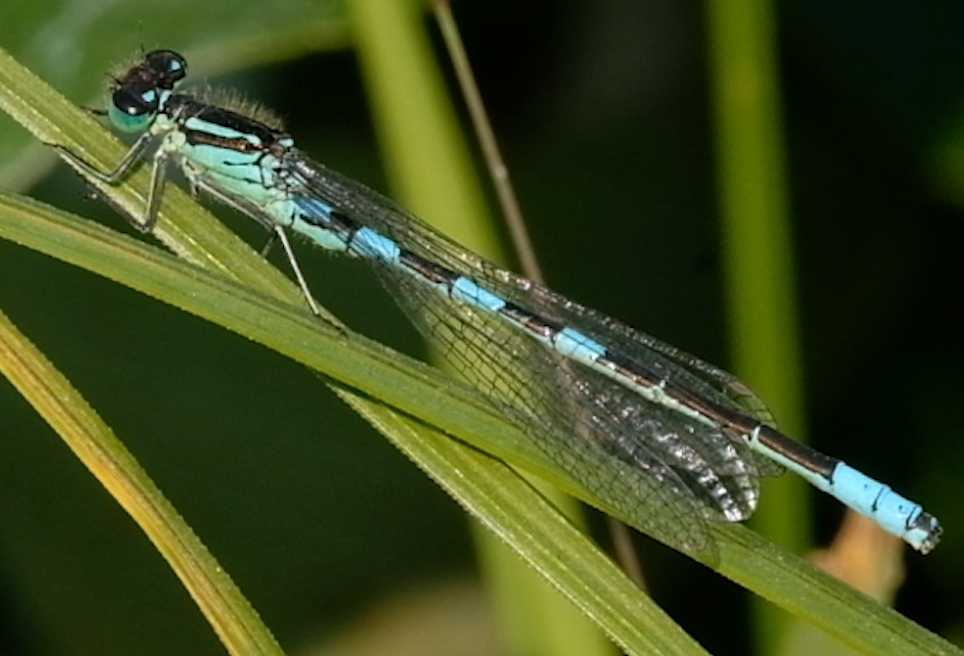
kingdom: Animalia
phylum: Arthropoda
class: Insecta
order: Odonata
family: Coenagrionidae
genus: Coenagrion
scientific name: Coenagrion resolutum
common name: Taiga bluet
